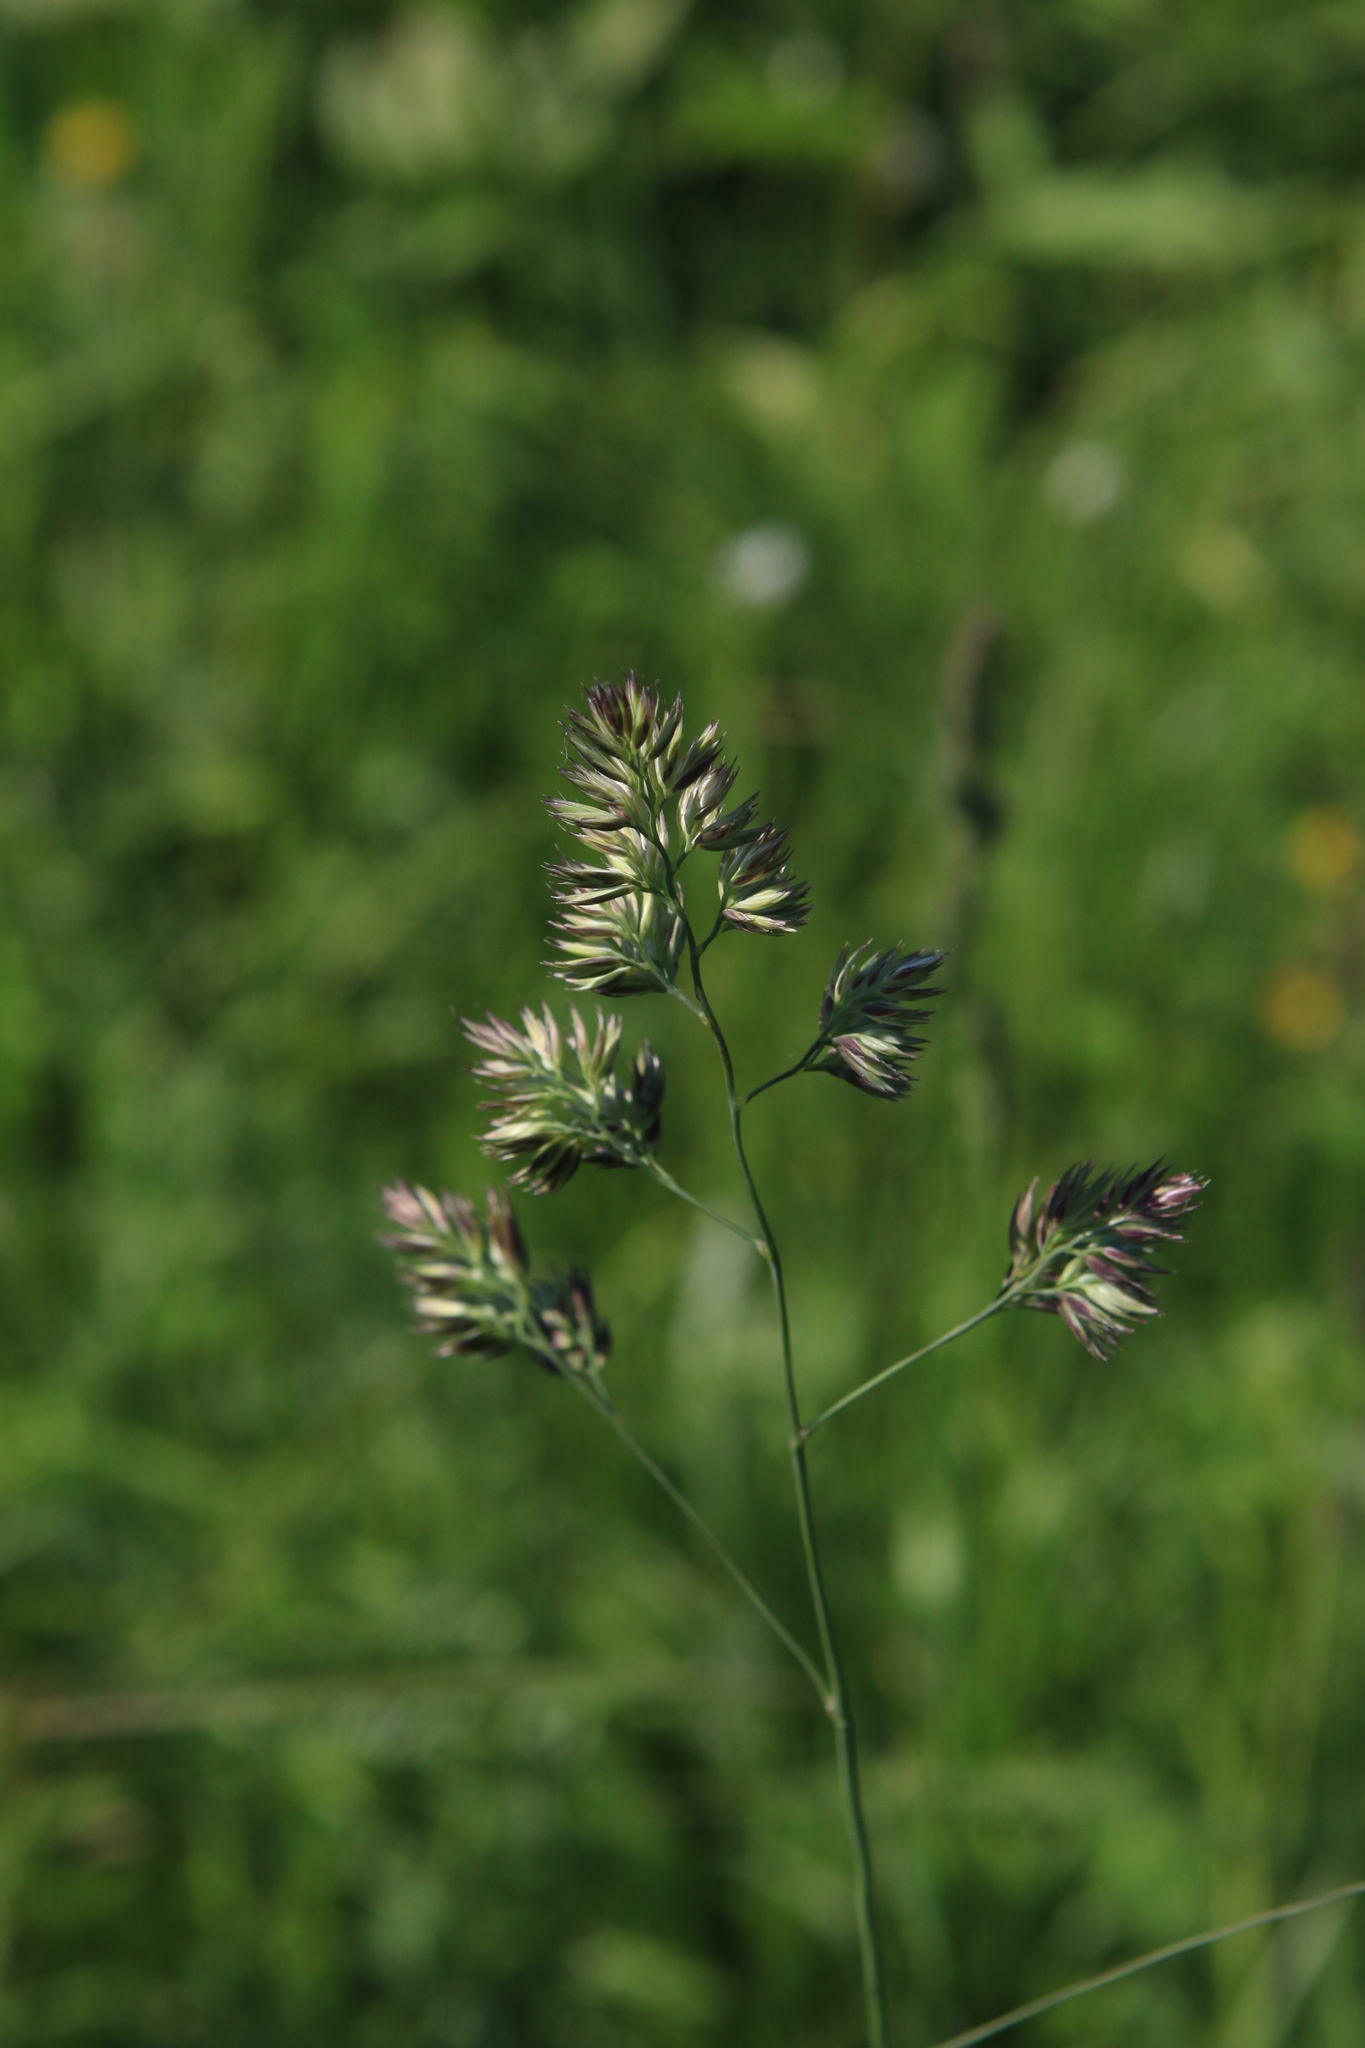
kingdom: Plantae
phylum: Tracheophyta
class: Liliopsida
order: Poales
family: Poaceae
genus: Dactylis
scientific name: Dactylis glomerata
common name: Orchardgrass
